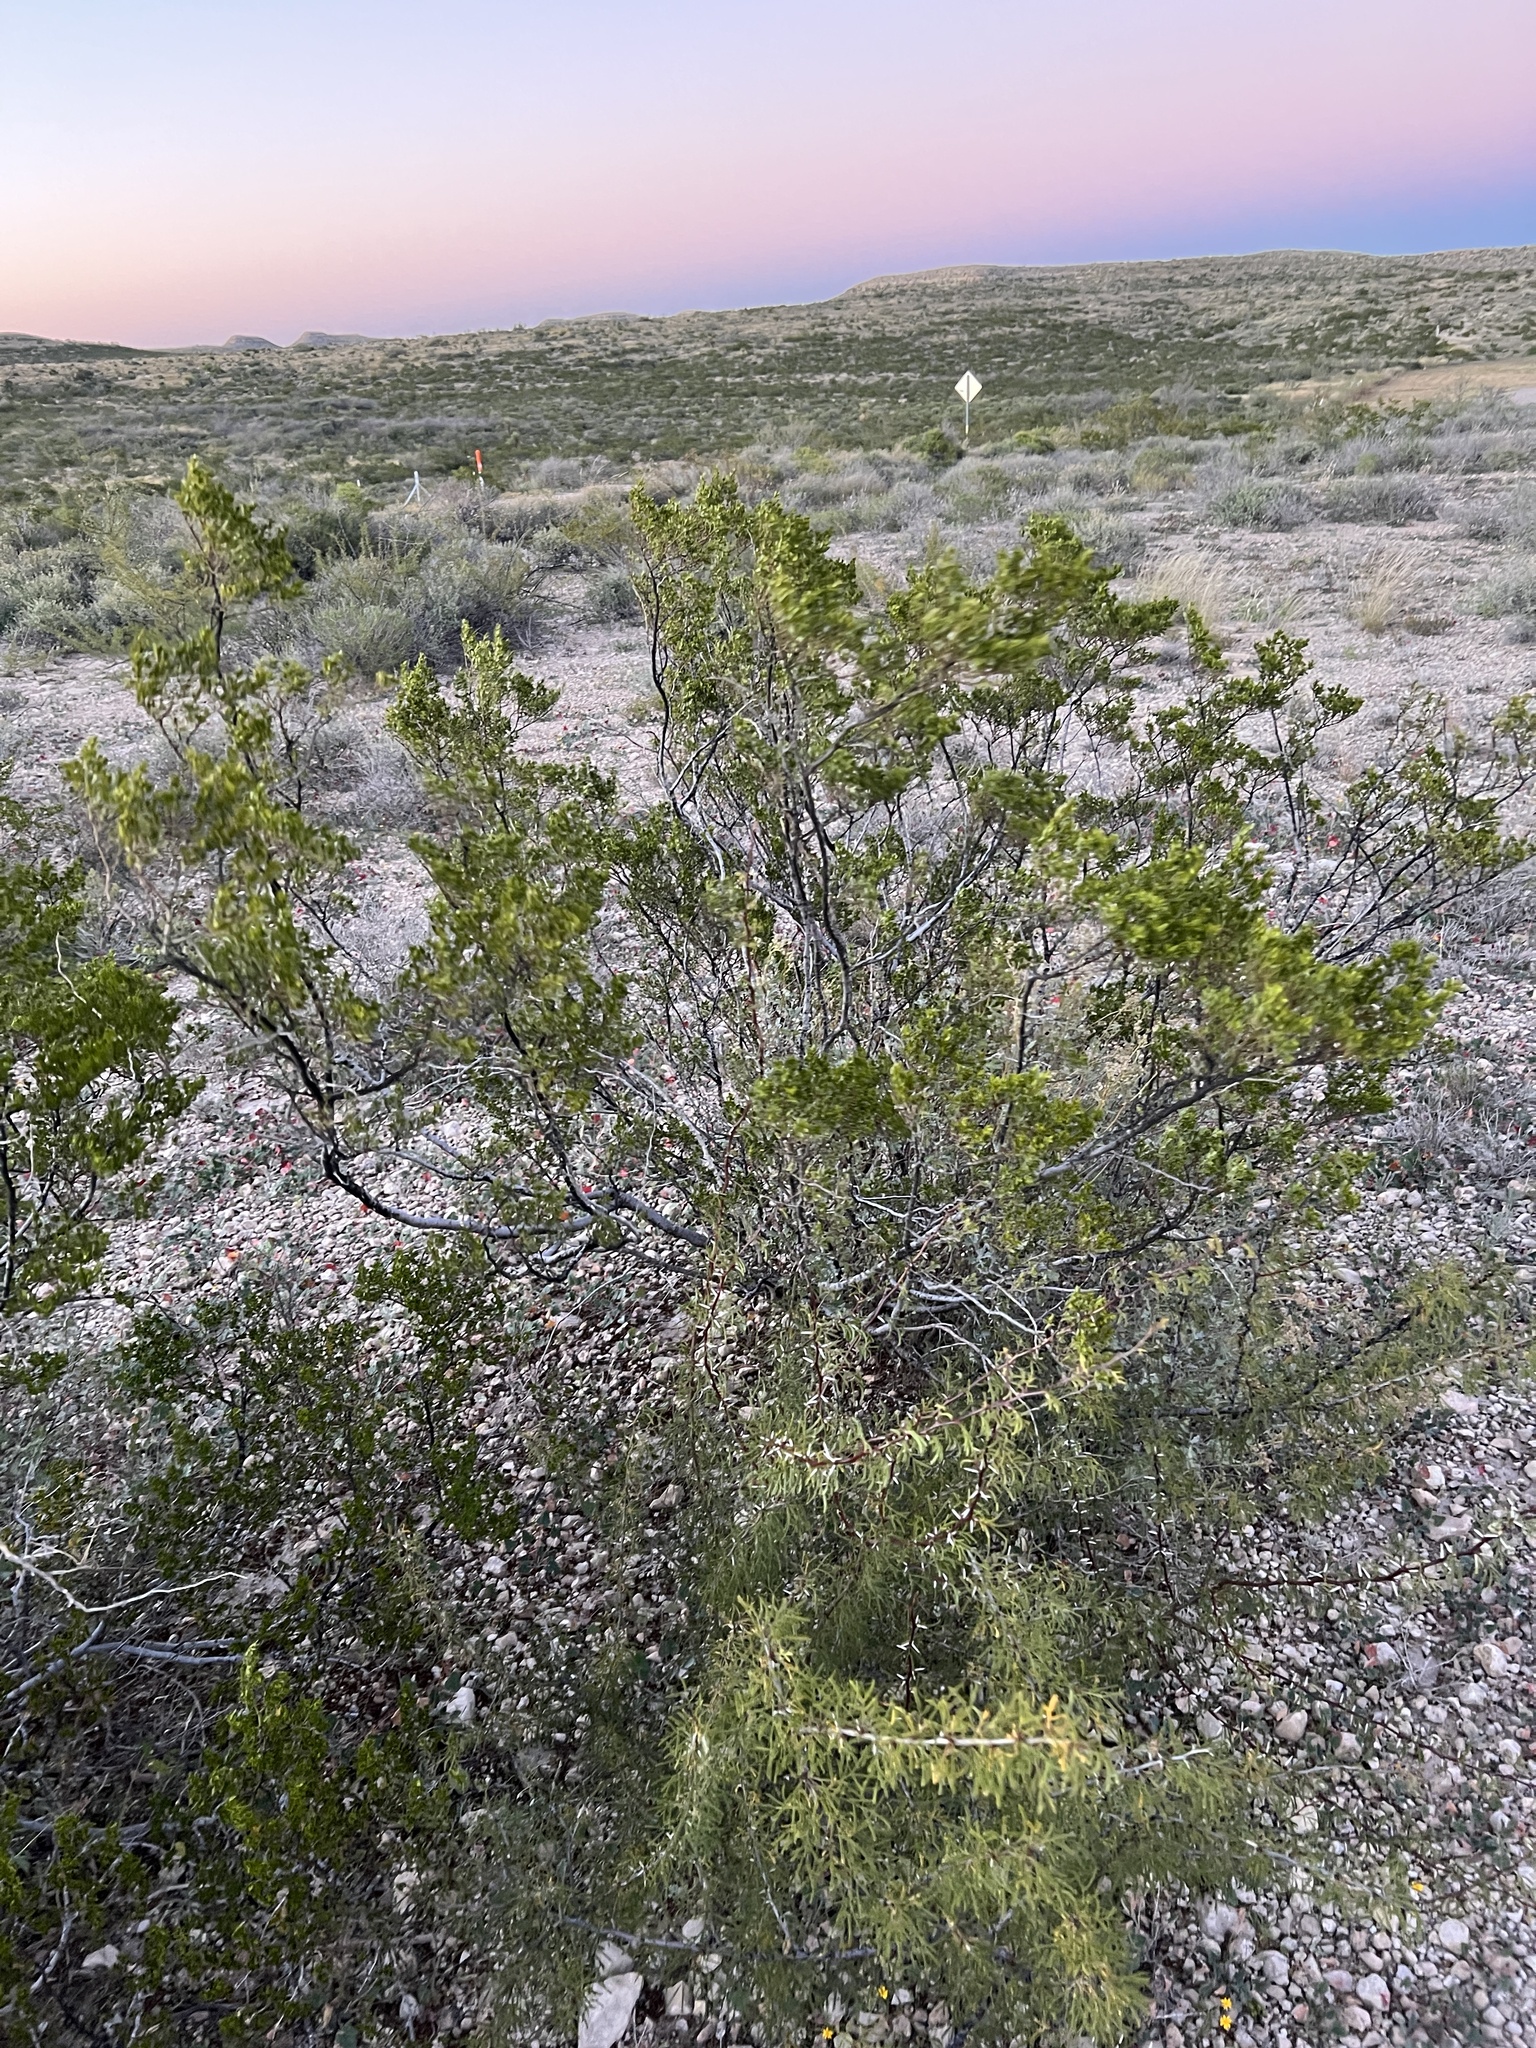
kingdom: Plantae
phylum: Tracheophyta
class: Magnoliopsida
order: Zygophyllales
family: Zygophyllaceae
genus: Larrea
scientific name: Larrea tridentata
